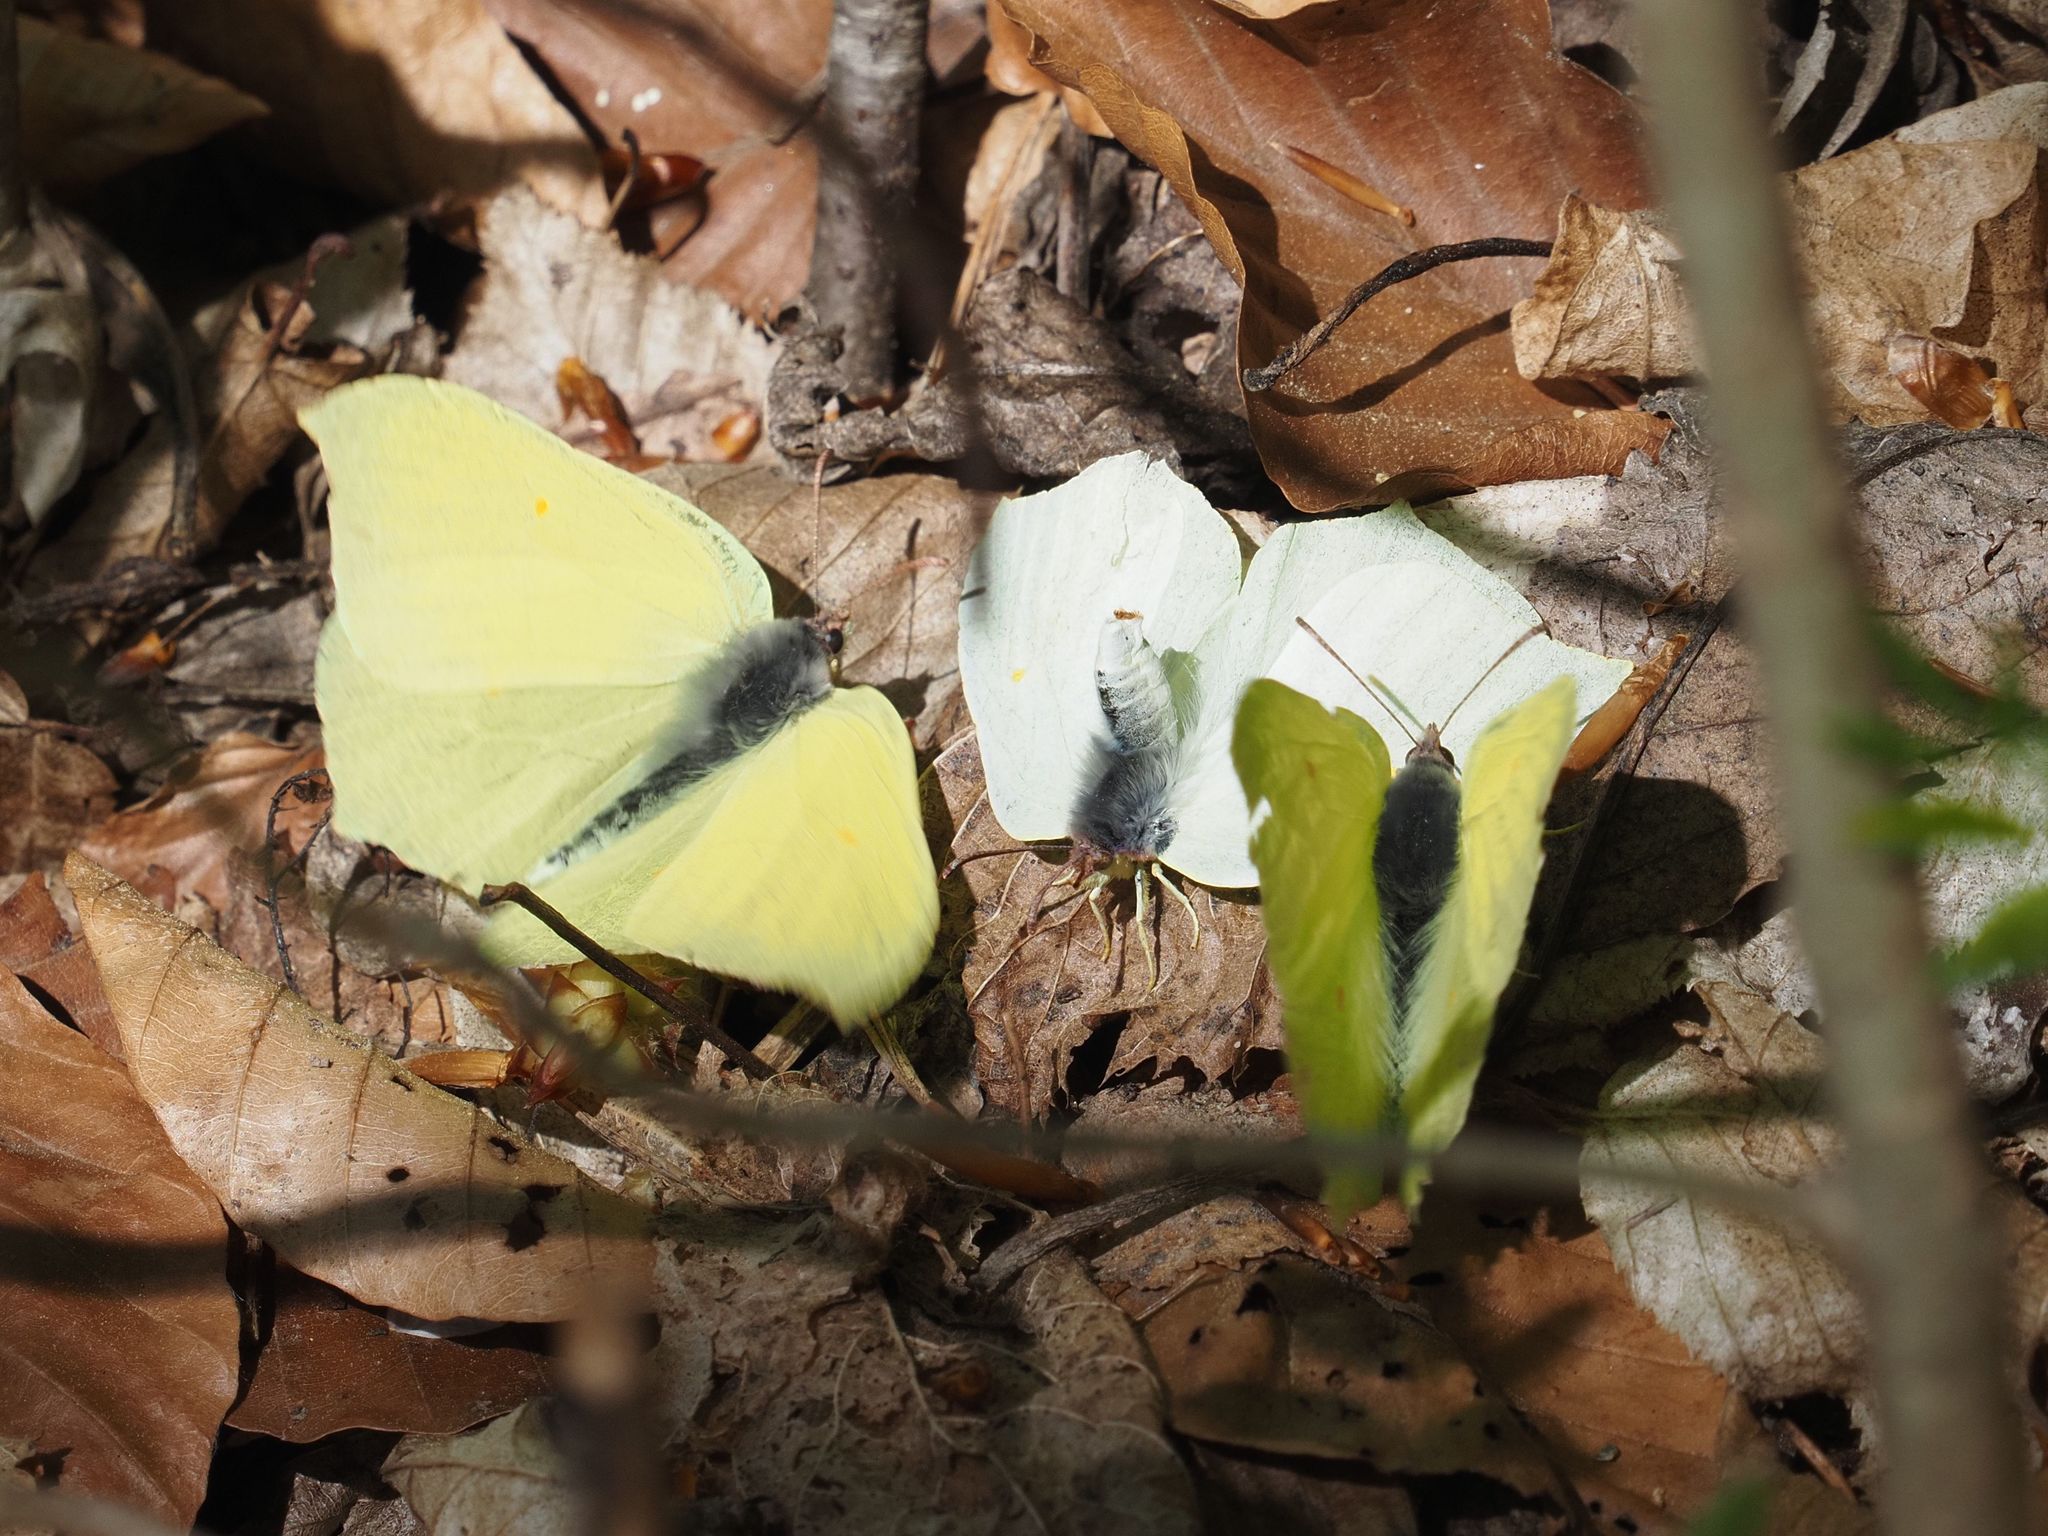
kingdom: Animalia
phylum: Arthropoda
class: Insecta
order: Lepidoptera
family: Pieridae
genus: Gonepteryx
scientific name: Gonepteryx rhamni
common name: Brimstone
